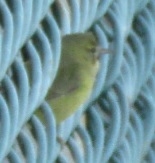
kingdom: Animalia
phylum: Chordata
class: Aves
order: Passeriformes
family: Parulidae
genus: Leiothlypis
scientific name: Leiothlypis celata
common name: Orange-crowned warbler
